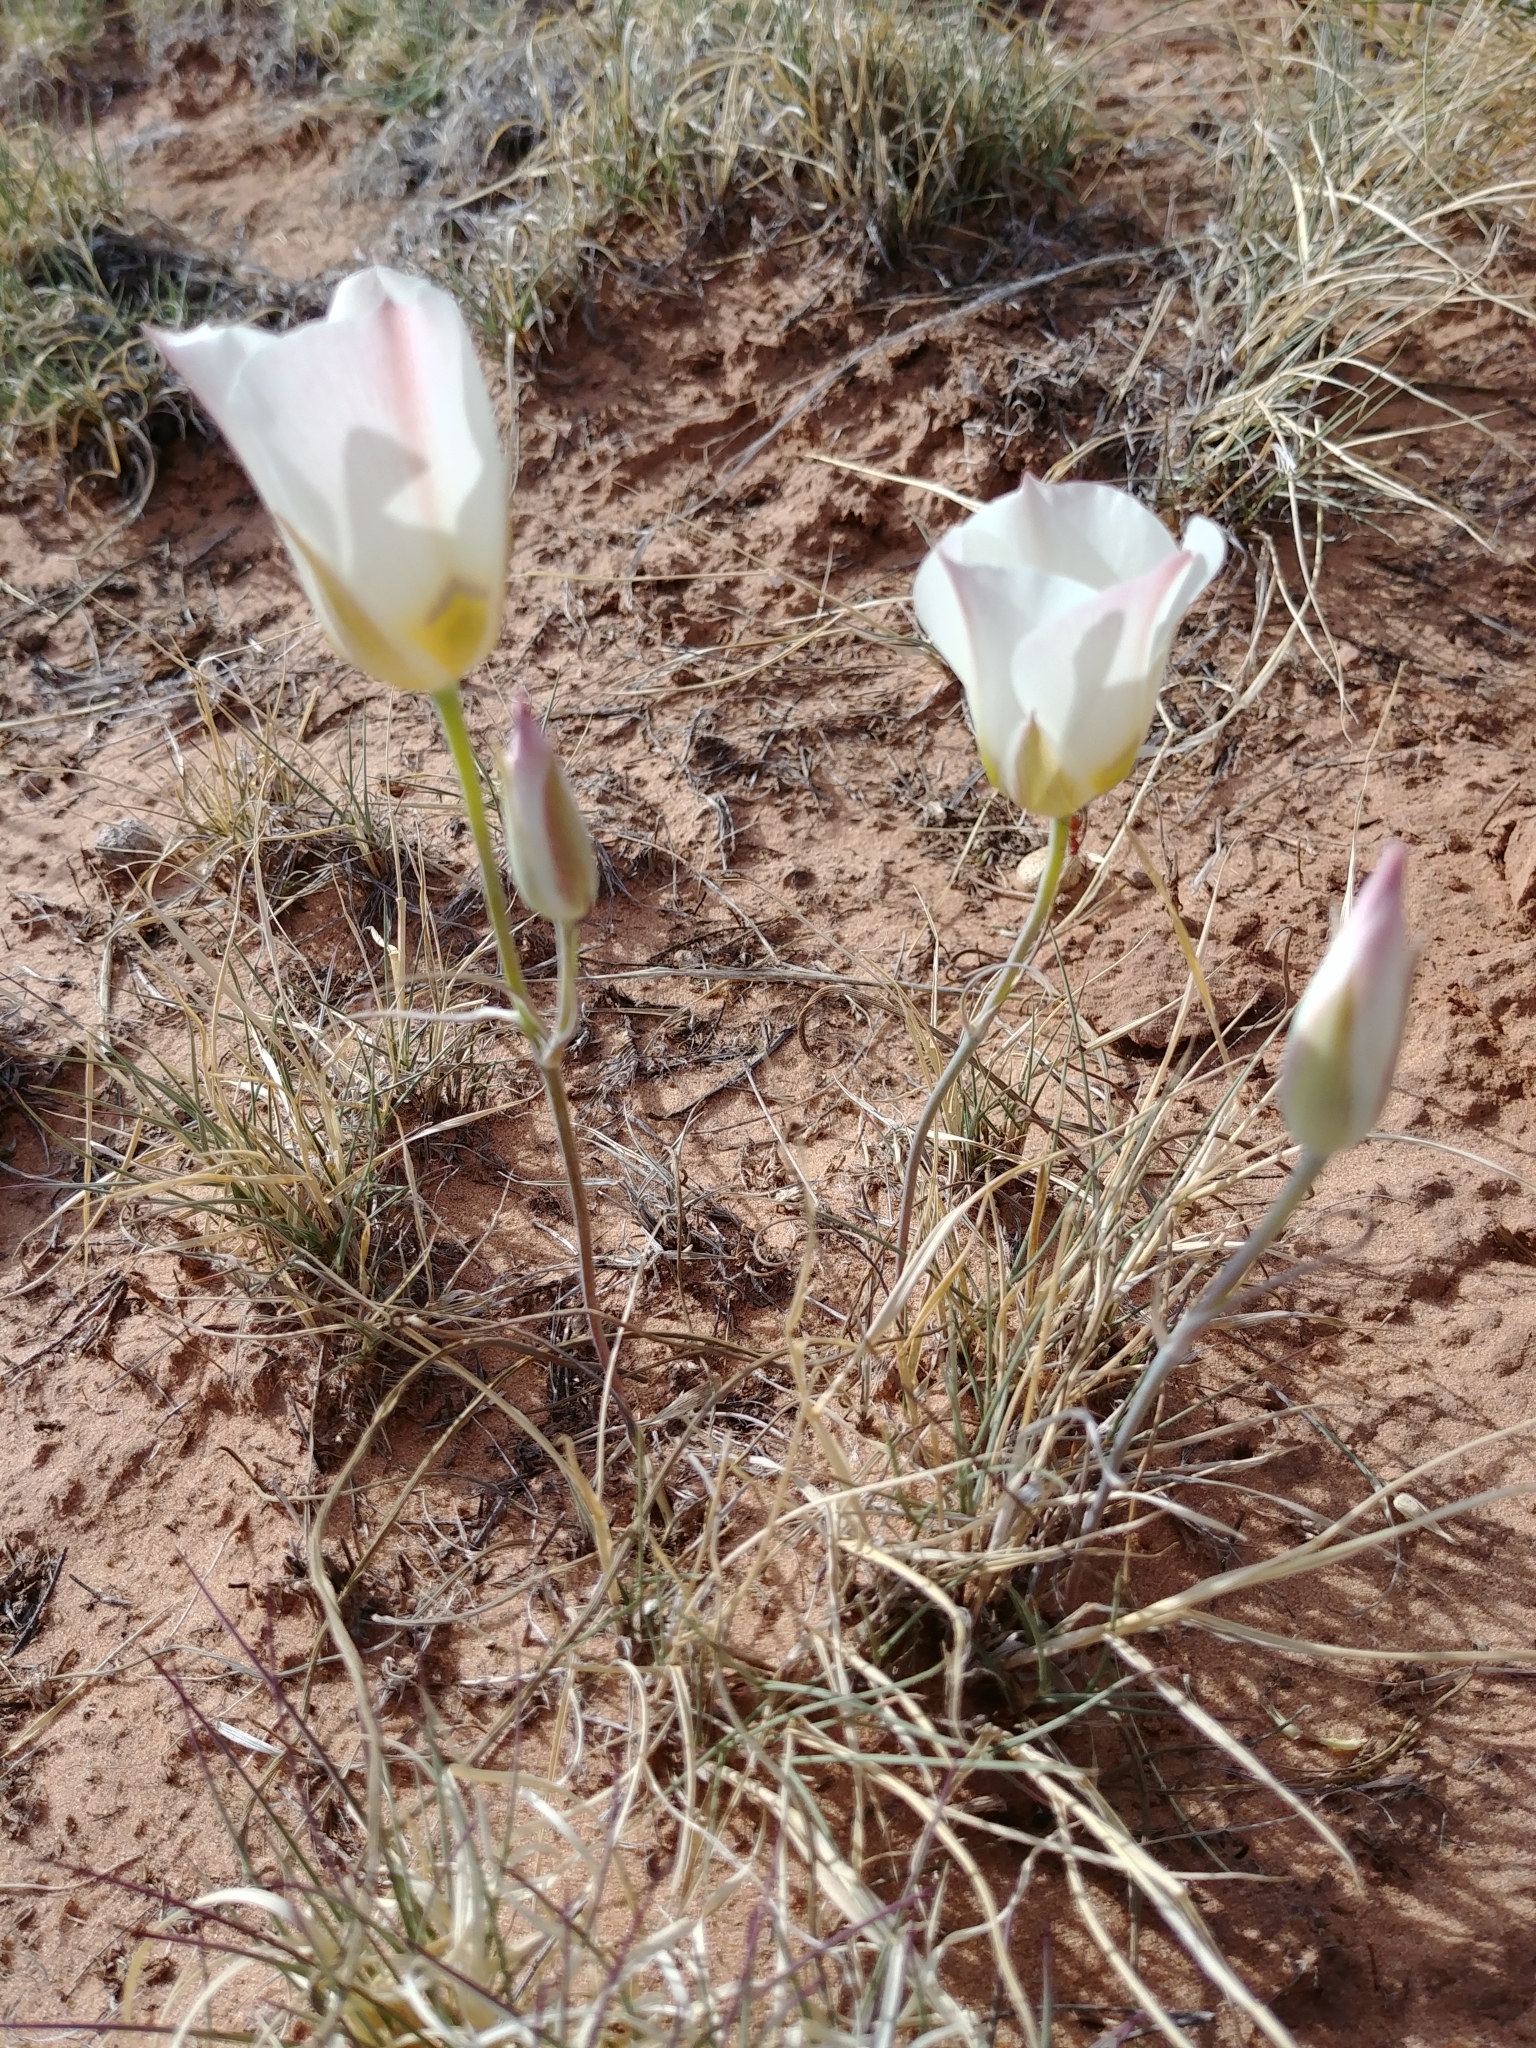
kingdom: Plantae
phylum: Tracheophyta
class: Liliopsida
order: Liliales
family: Liliaceae
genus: Calochortus
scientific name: Calochortus nuttallii
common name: Sego-lily
